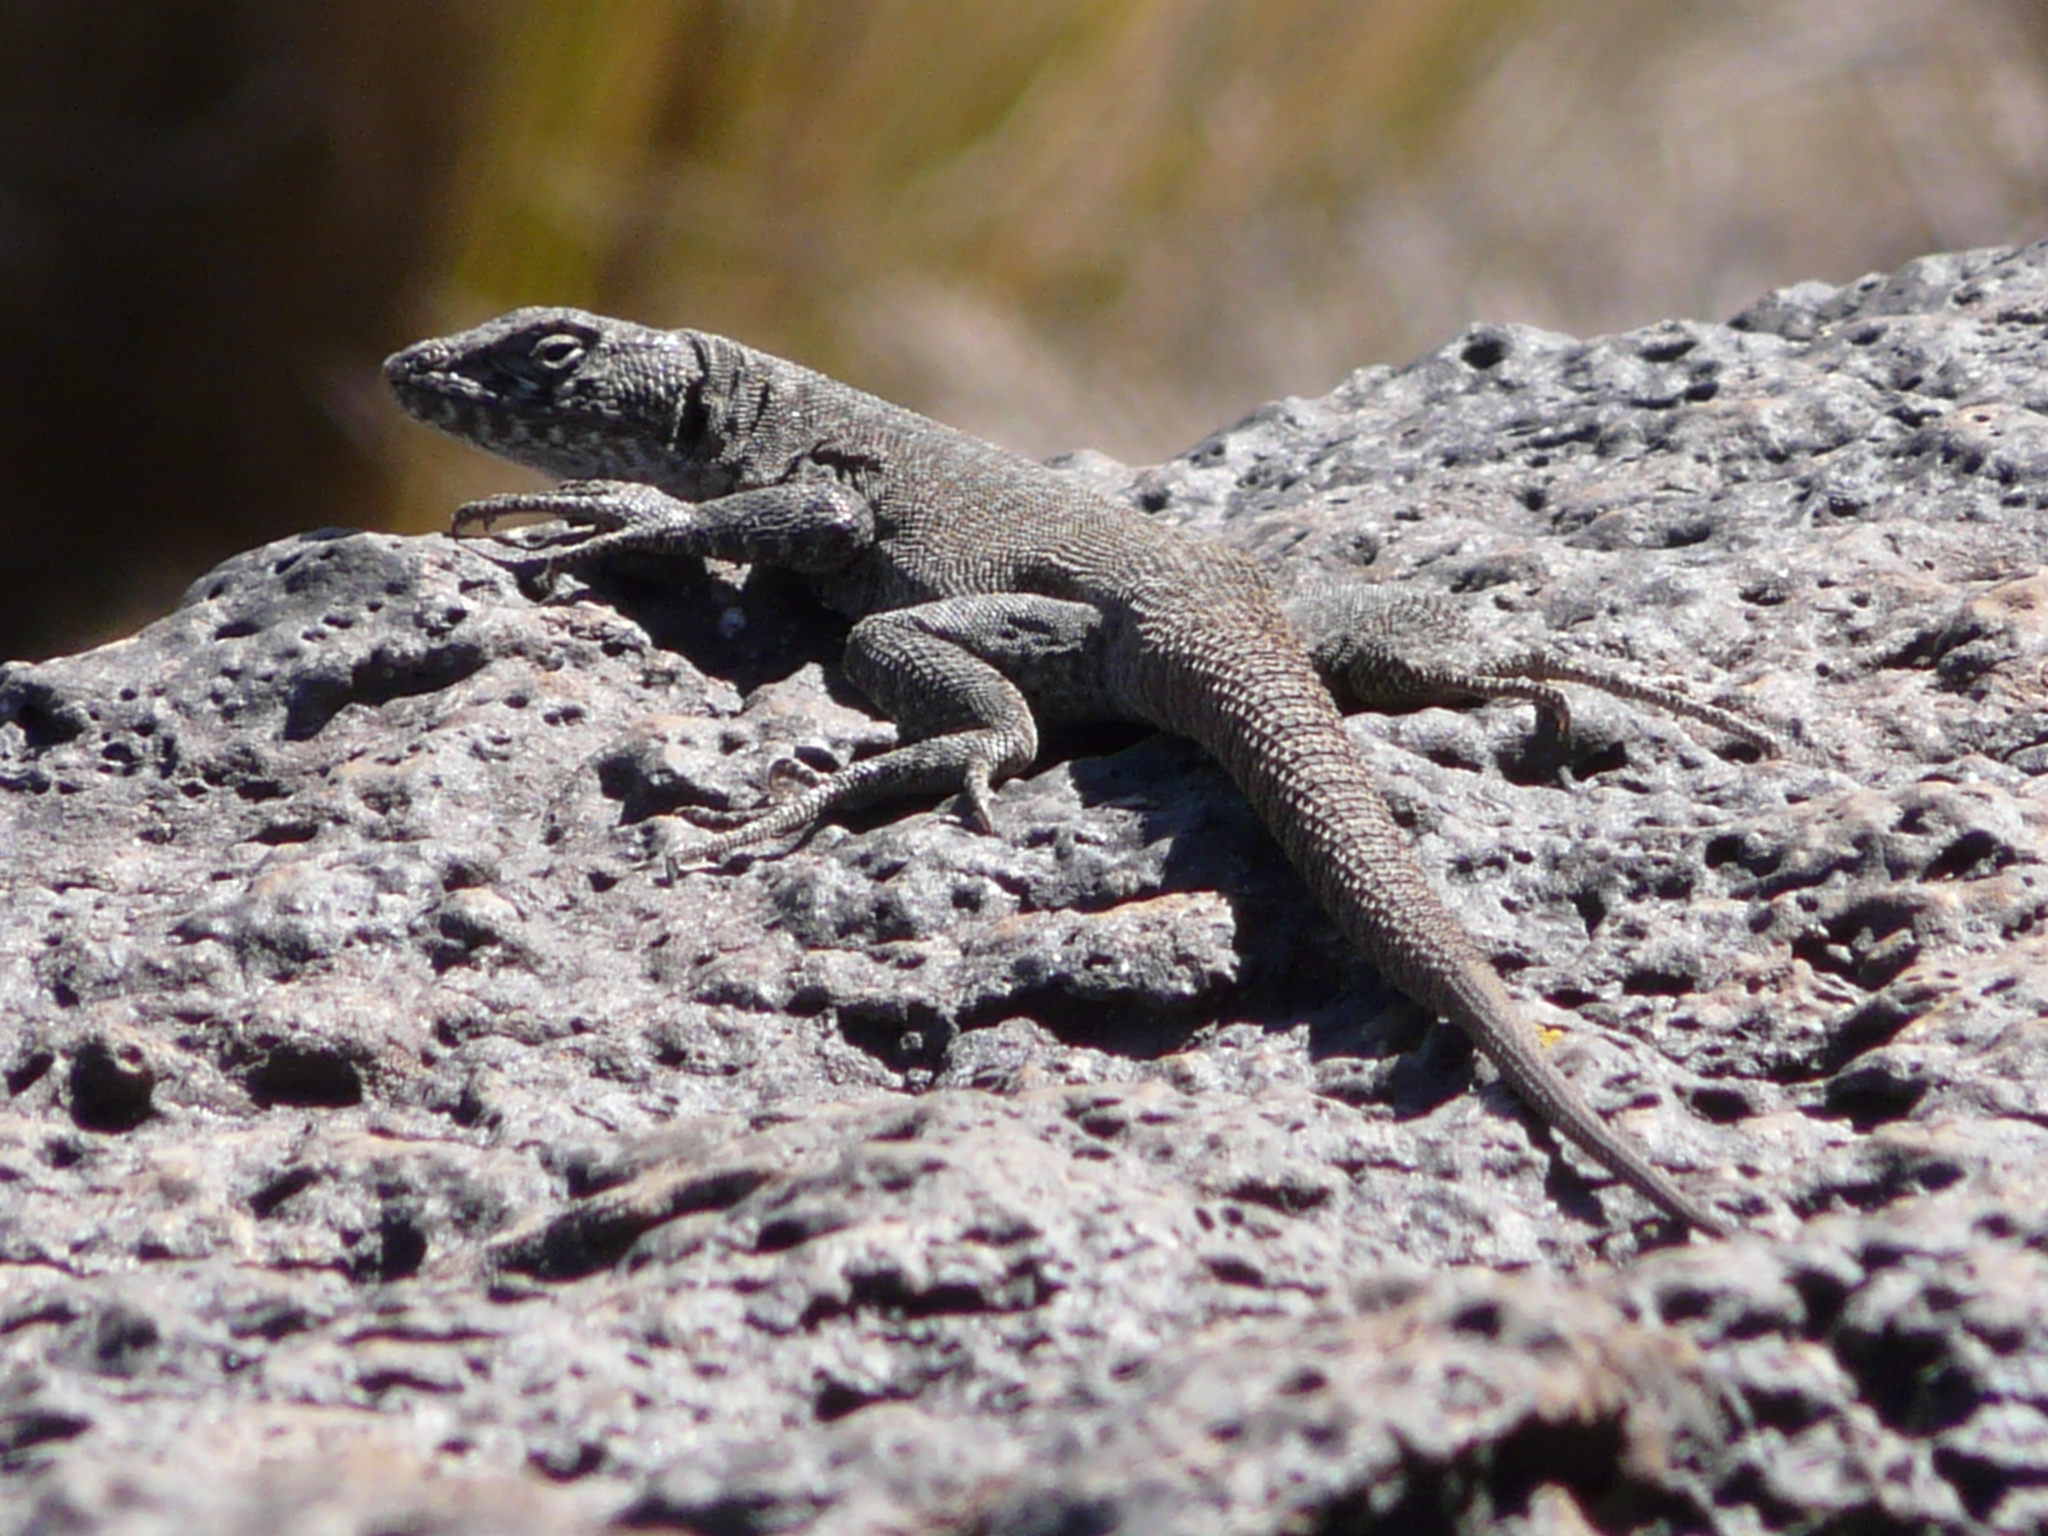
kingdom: Animalia
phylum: Chordata
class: Squamata
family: Liolaemidae
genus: Liolaemus
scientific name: Liolaemus austromendocinus
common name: Austromendocino tree iguana
